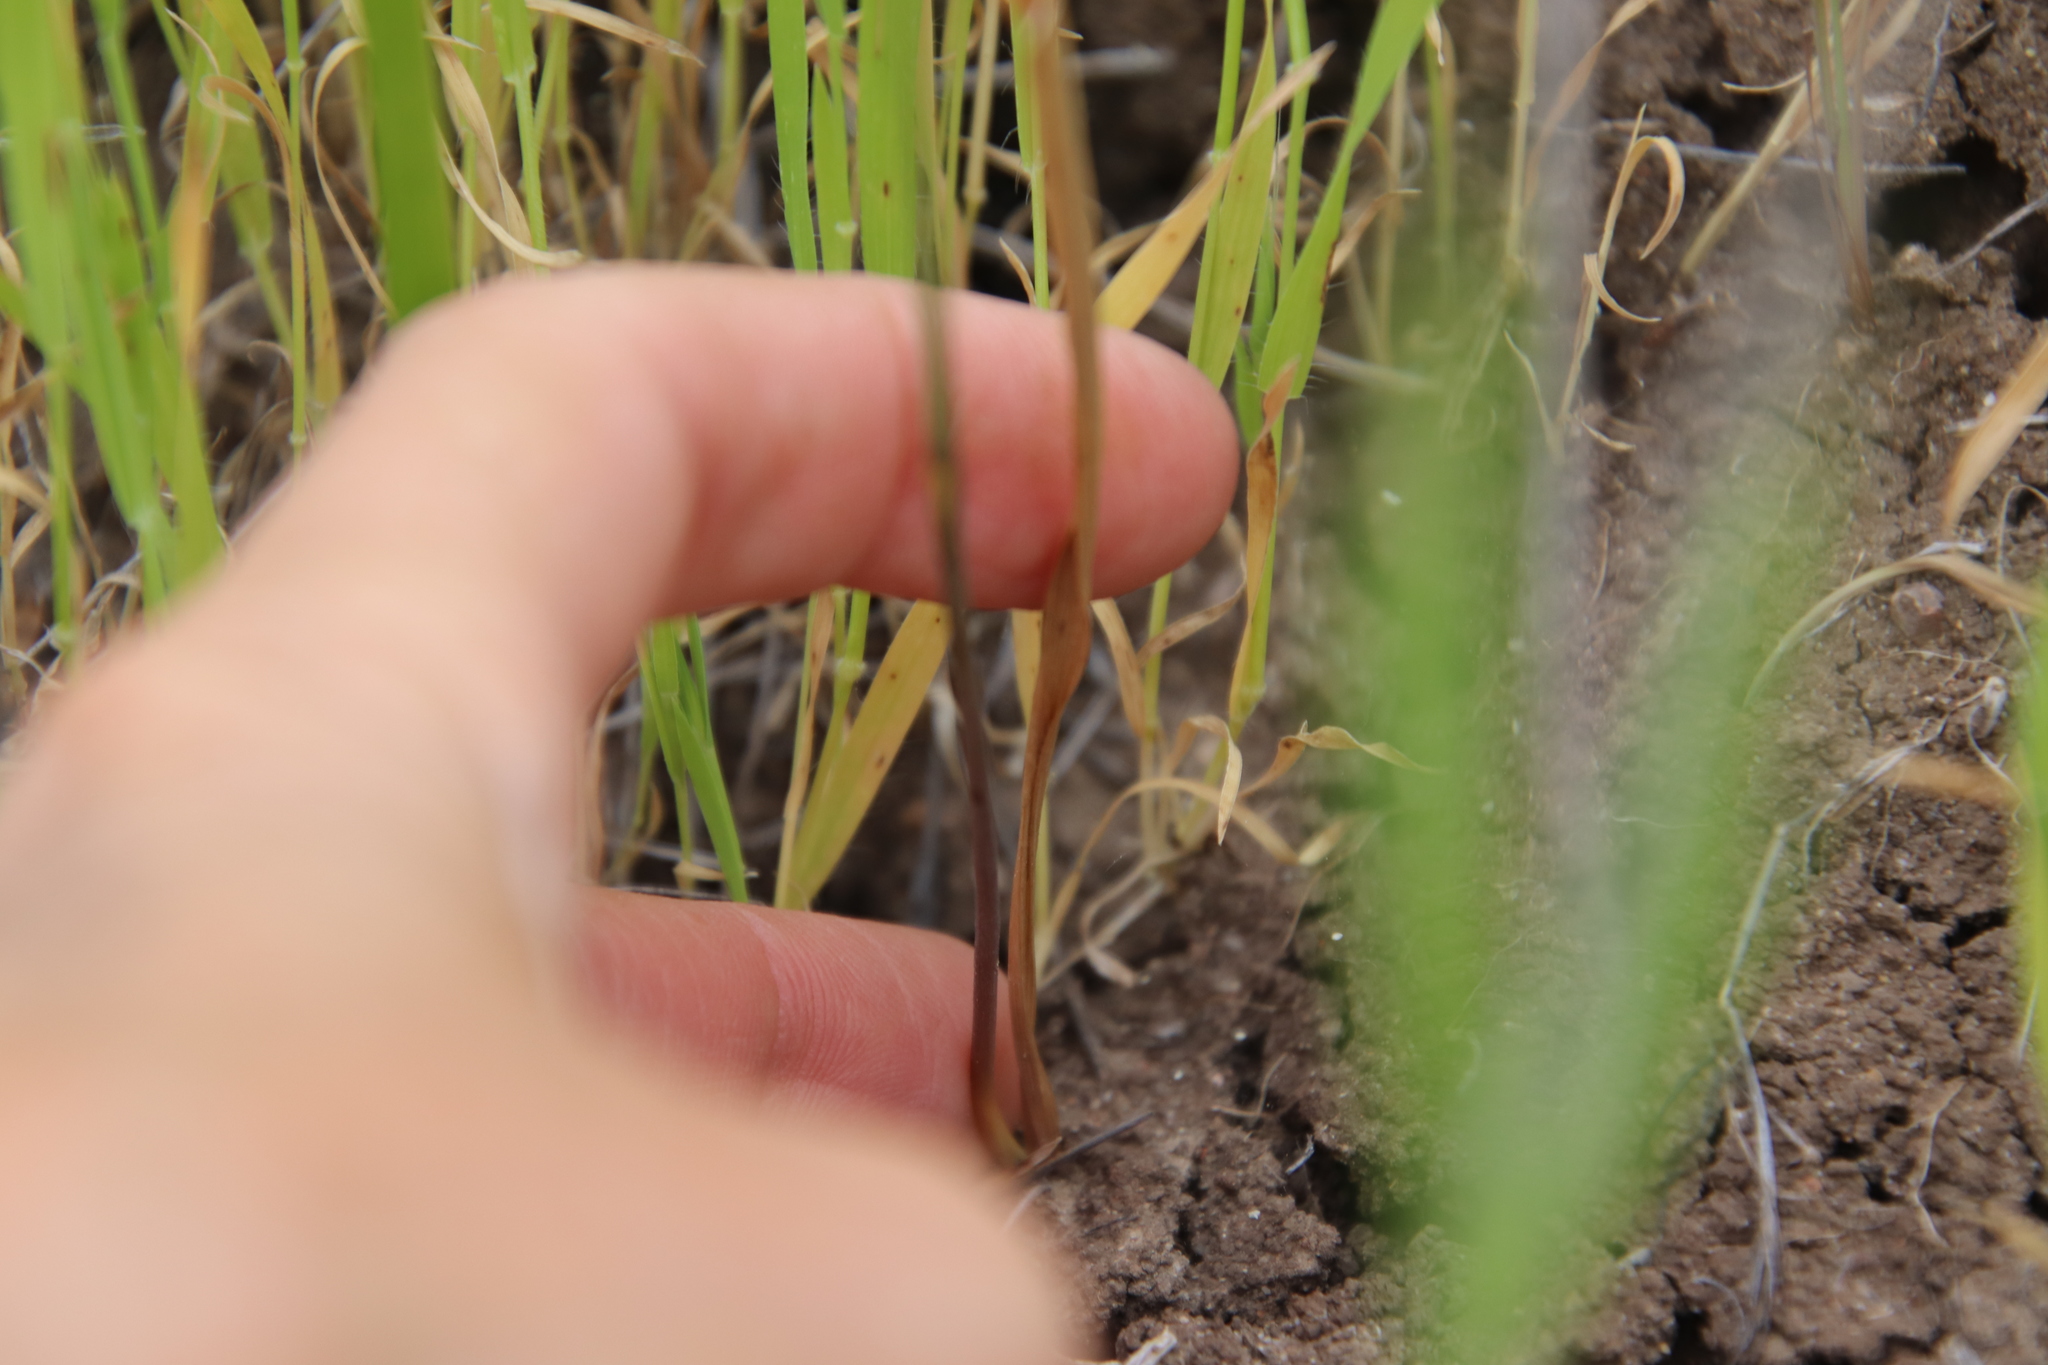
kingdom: Plantae
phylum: Tracheophyta
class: Liliopsida
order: Asparagales
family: Asparagaceae
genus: Bloomeria
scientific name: Bloomeria crocea
